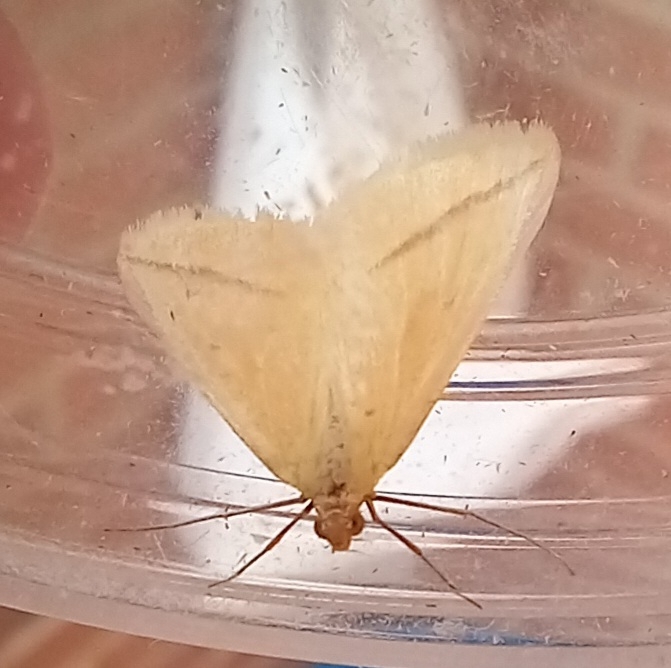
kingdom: Animalia
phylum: Arthropoda
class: Insecta
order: Lepidoptera
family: Geometridae
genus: Rhodometra
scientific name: Rhodometra sacraria
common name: Vestal
